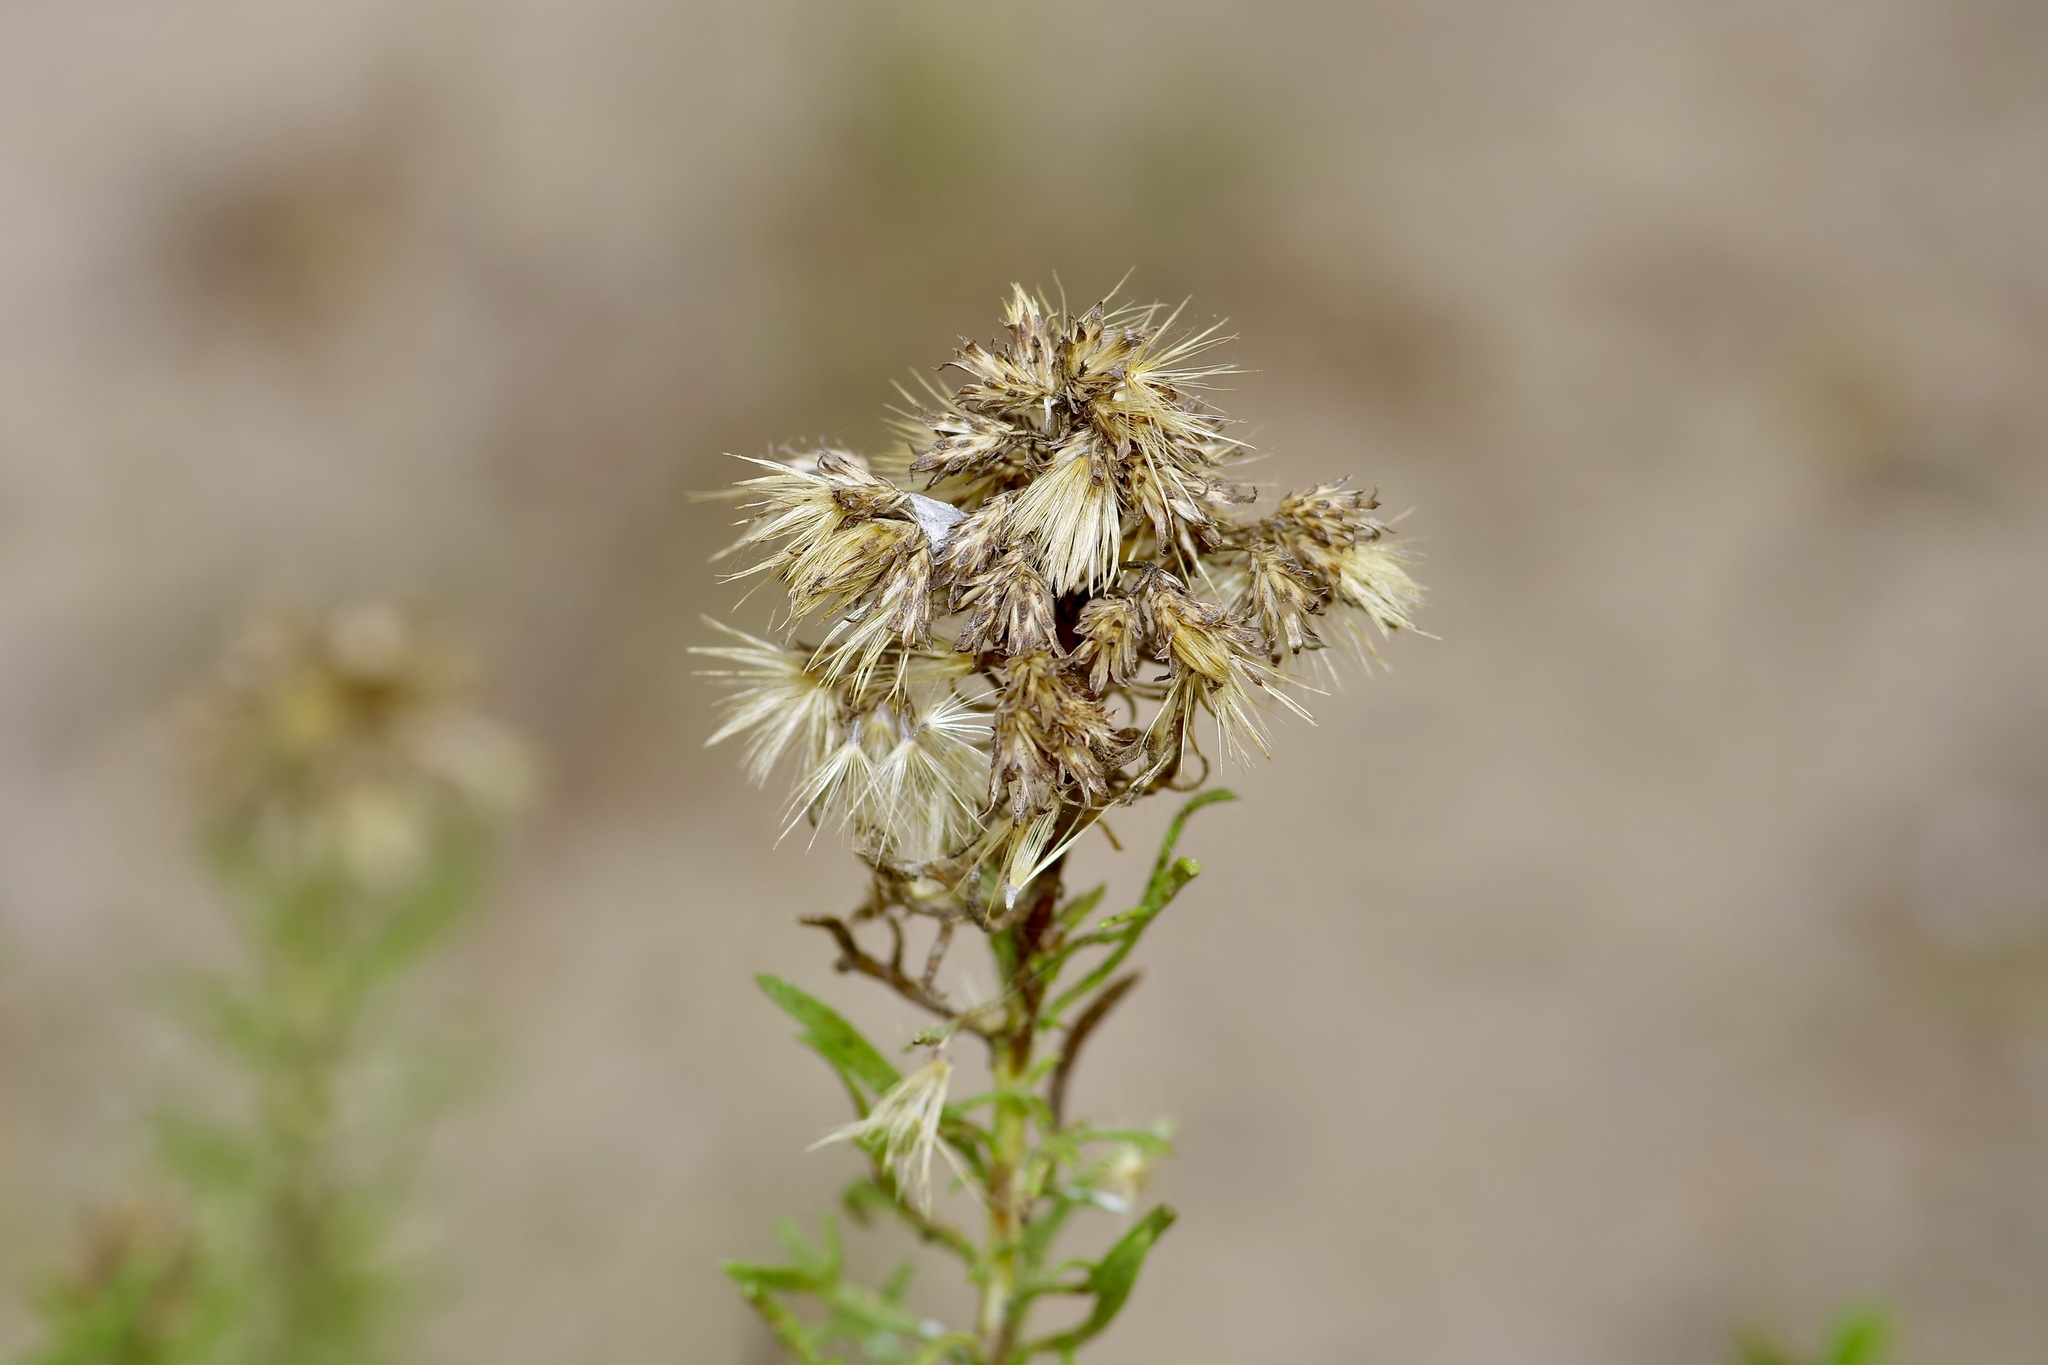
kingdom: Plantae
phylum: Tracheophyta
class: Magnoliopsida
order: Asterales
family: Asteraceae
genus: Isocoma
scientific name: Isocoma coronopifolia
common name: Common jimmyweed
